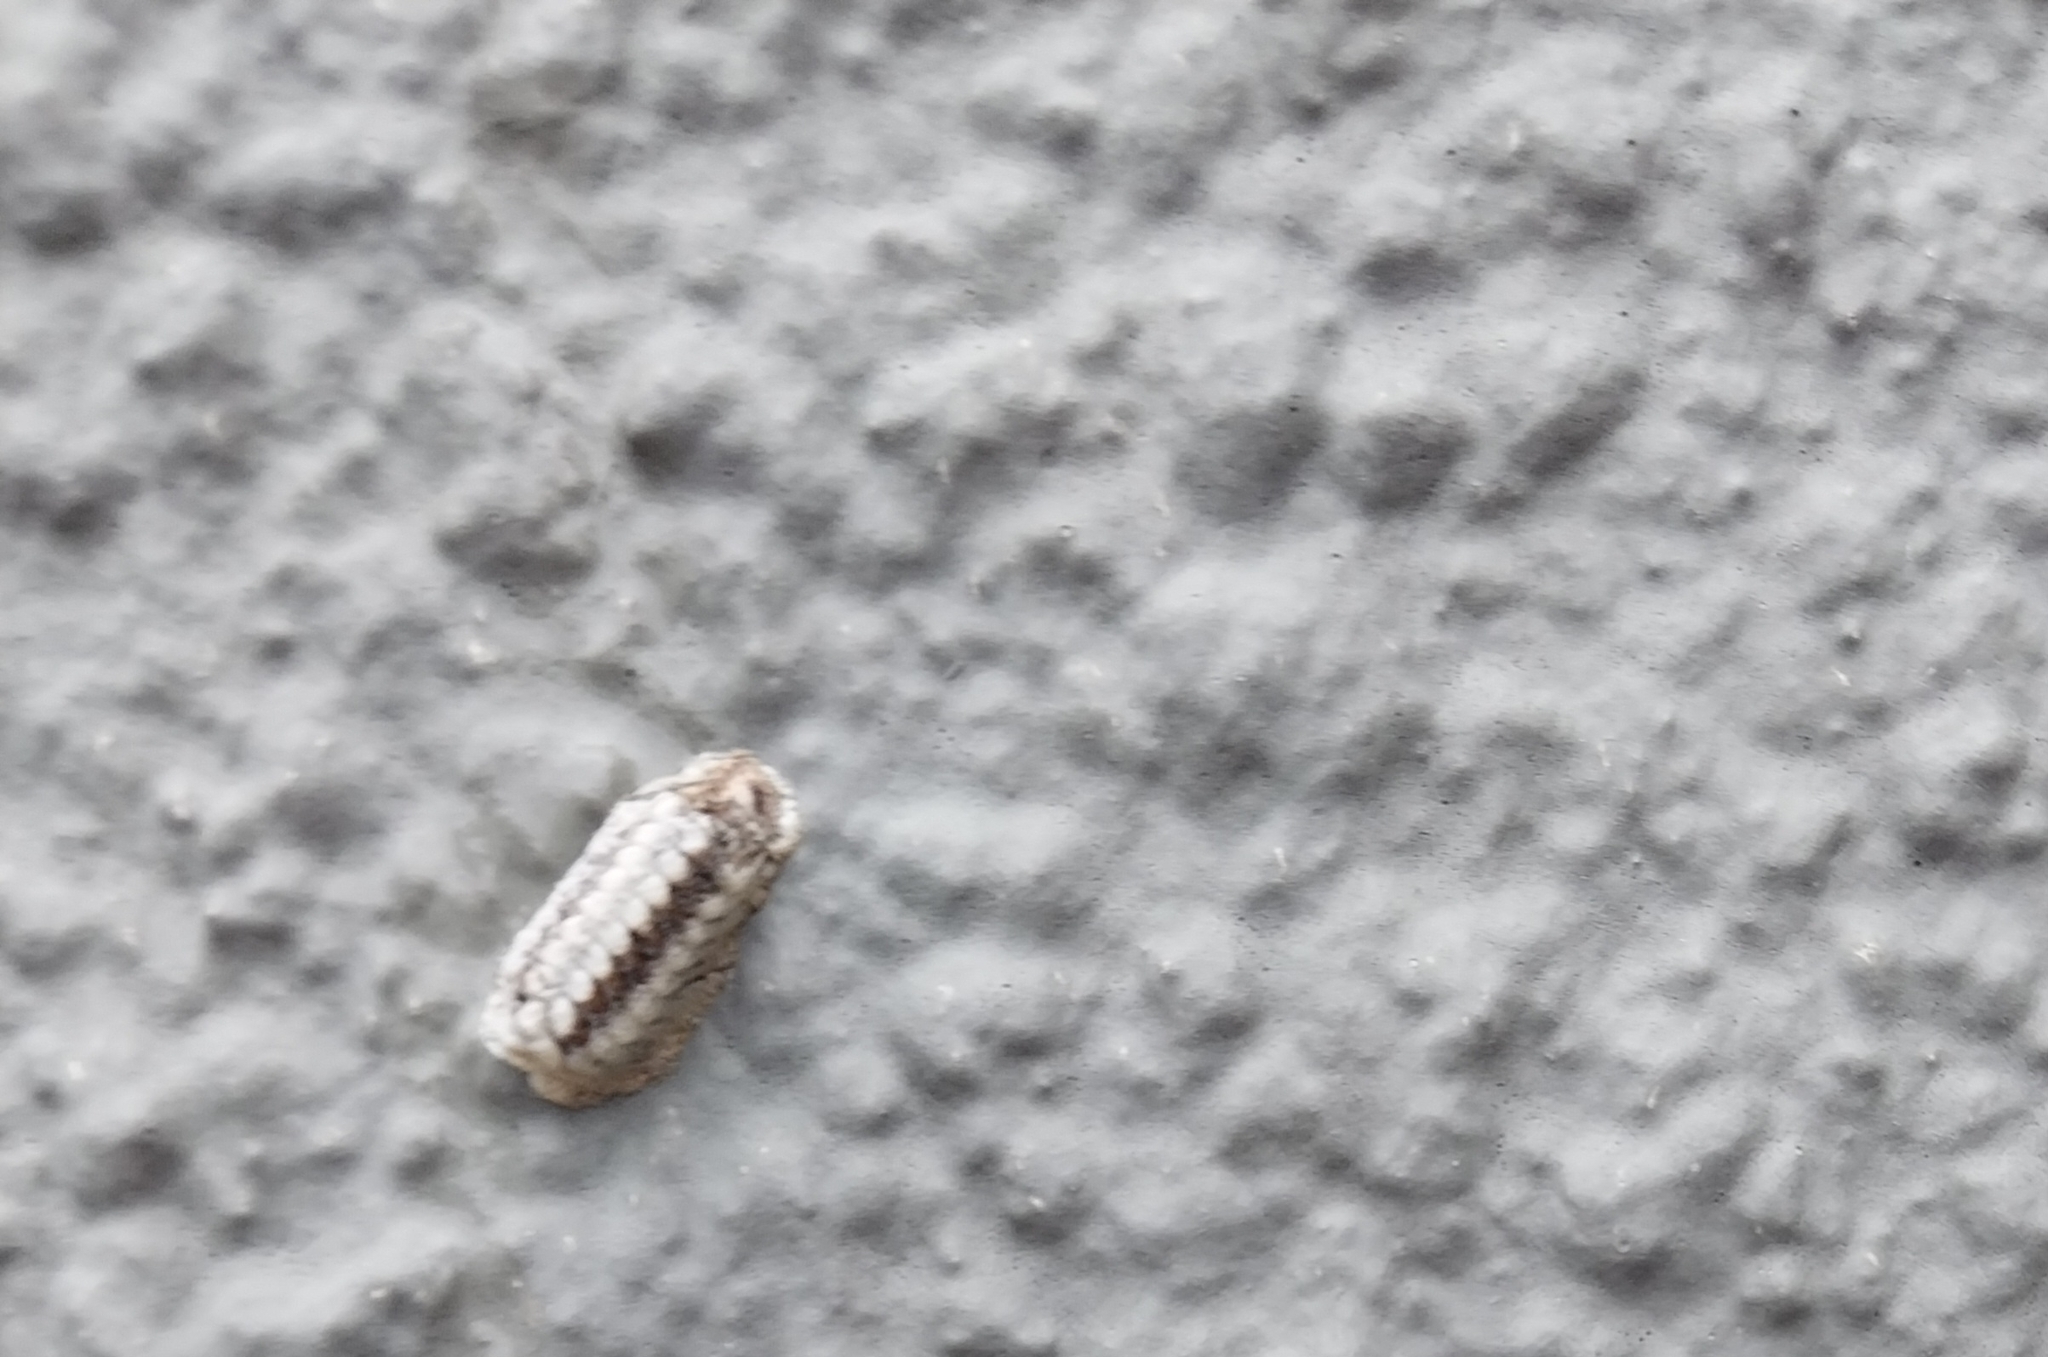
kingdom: Animalia
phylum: Arthropoda
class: Insecta
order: Mantodea
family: Mantidae
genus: Orthodera
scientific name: Orthodera novaezealandiae
